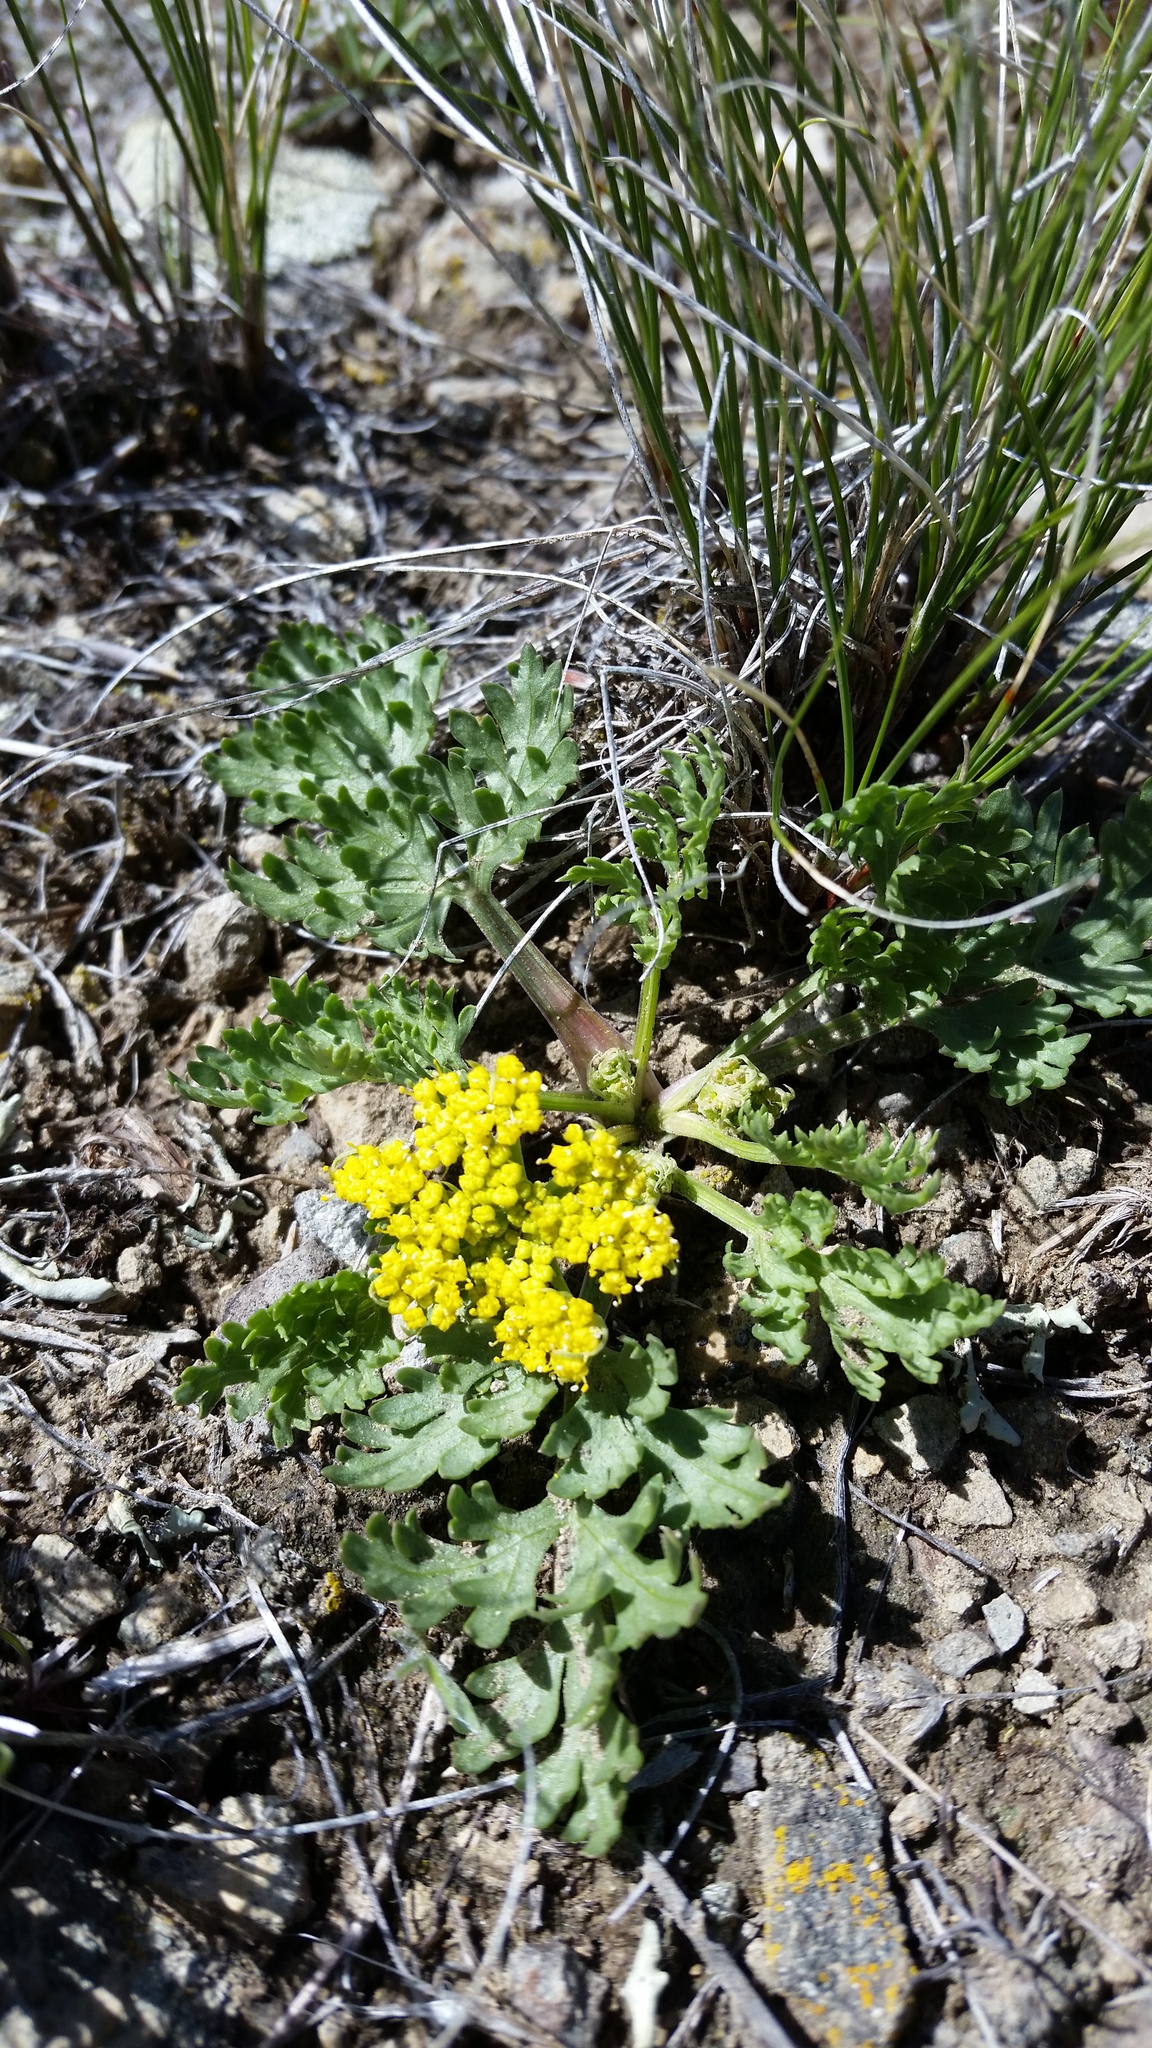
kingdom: Plantae
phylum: Tracheophyta
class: Magnoliopsida
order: Apiales
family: Apiaceae
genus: Musineon
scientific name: Musineon divaricatum
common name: Plains musineon
